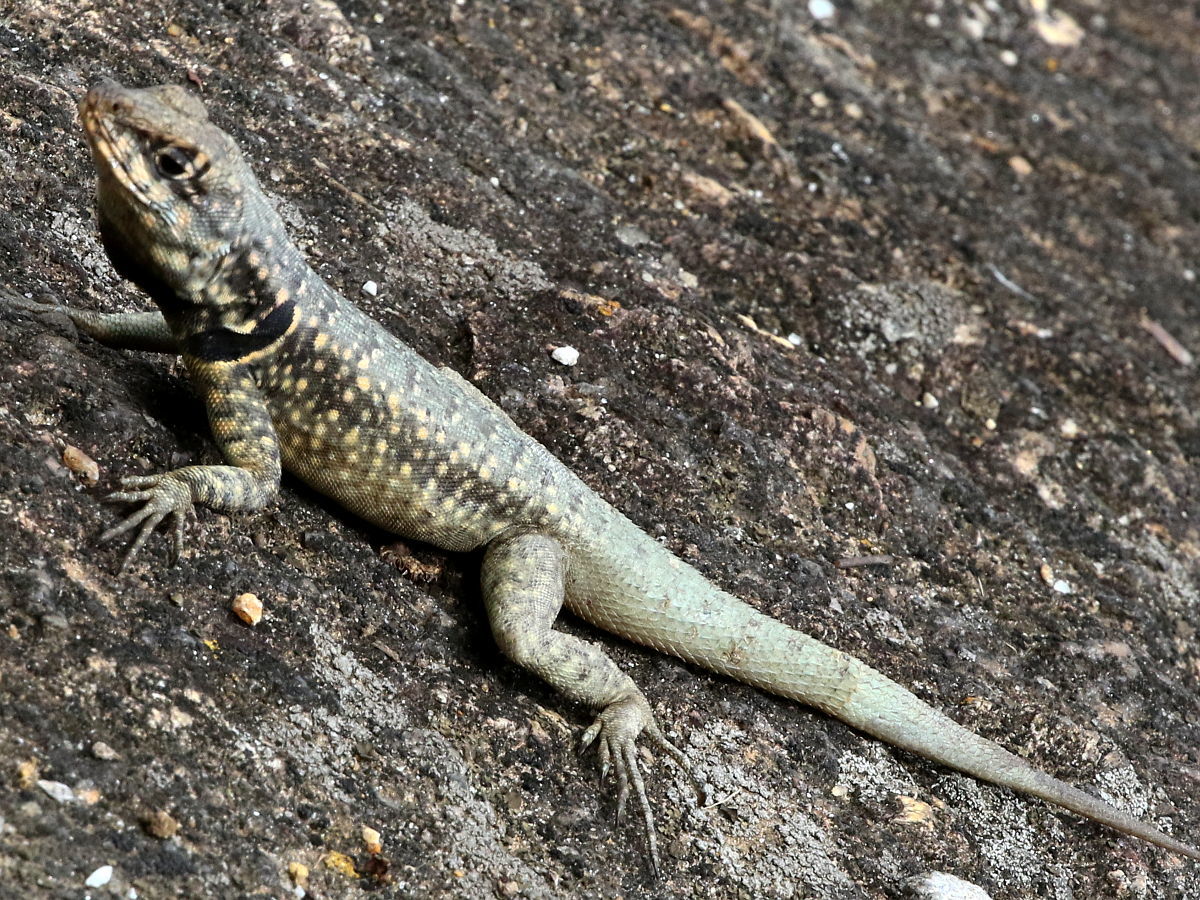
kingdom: Animalia
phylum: Chordata
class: Squamata
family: Tropiduridae
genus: Tropidurus
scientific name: Tropidurus torquatus
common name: Amazon lava lizard
